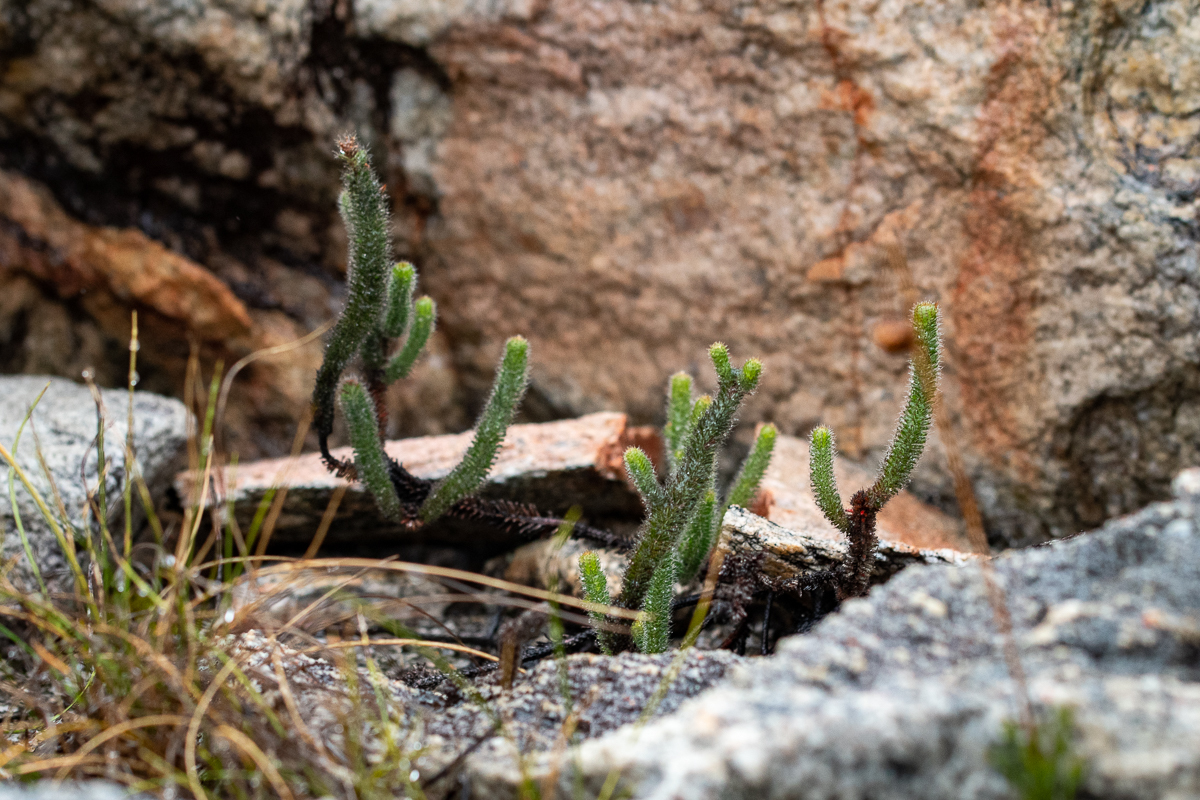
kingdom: Plantae
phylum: Tracheophyta
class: Magnoliopsida
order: Ericales
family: Ericaceae
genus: Erica
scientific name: Erica massonii
